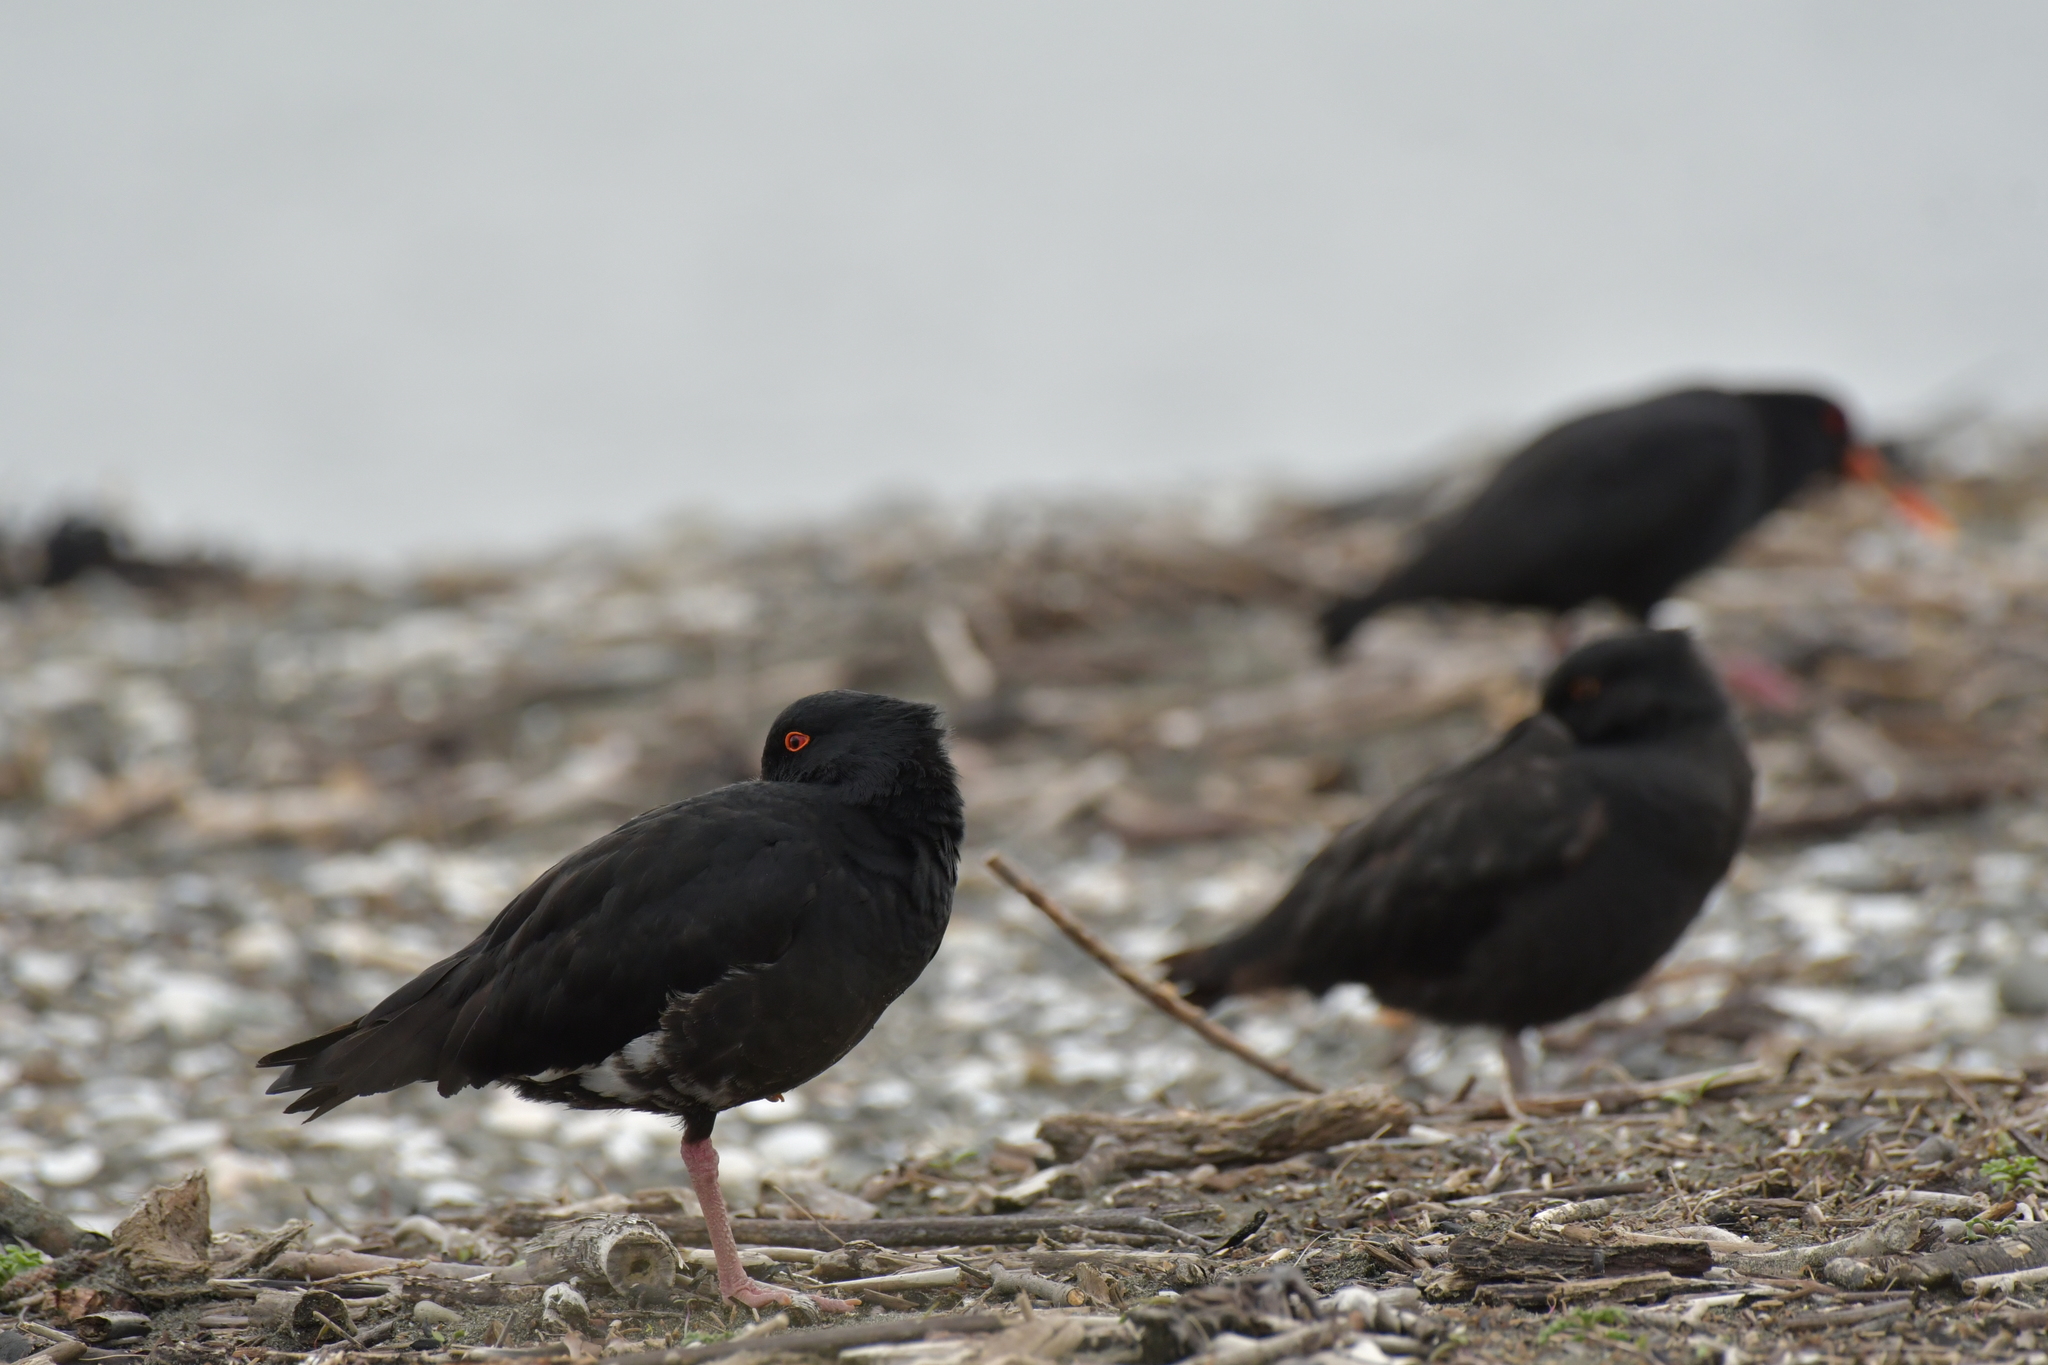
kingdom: Animalia
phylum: Chordata
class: Aves
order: Charadriiformes
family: Haematopodidae
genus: Haematopus
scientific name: Haematopus unicolor
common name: Variable oystercatcher
